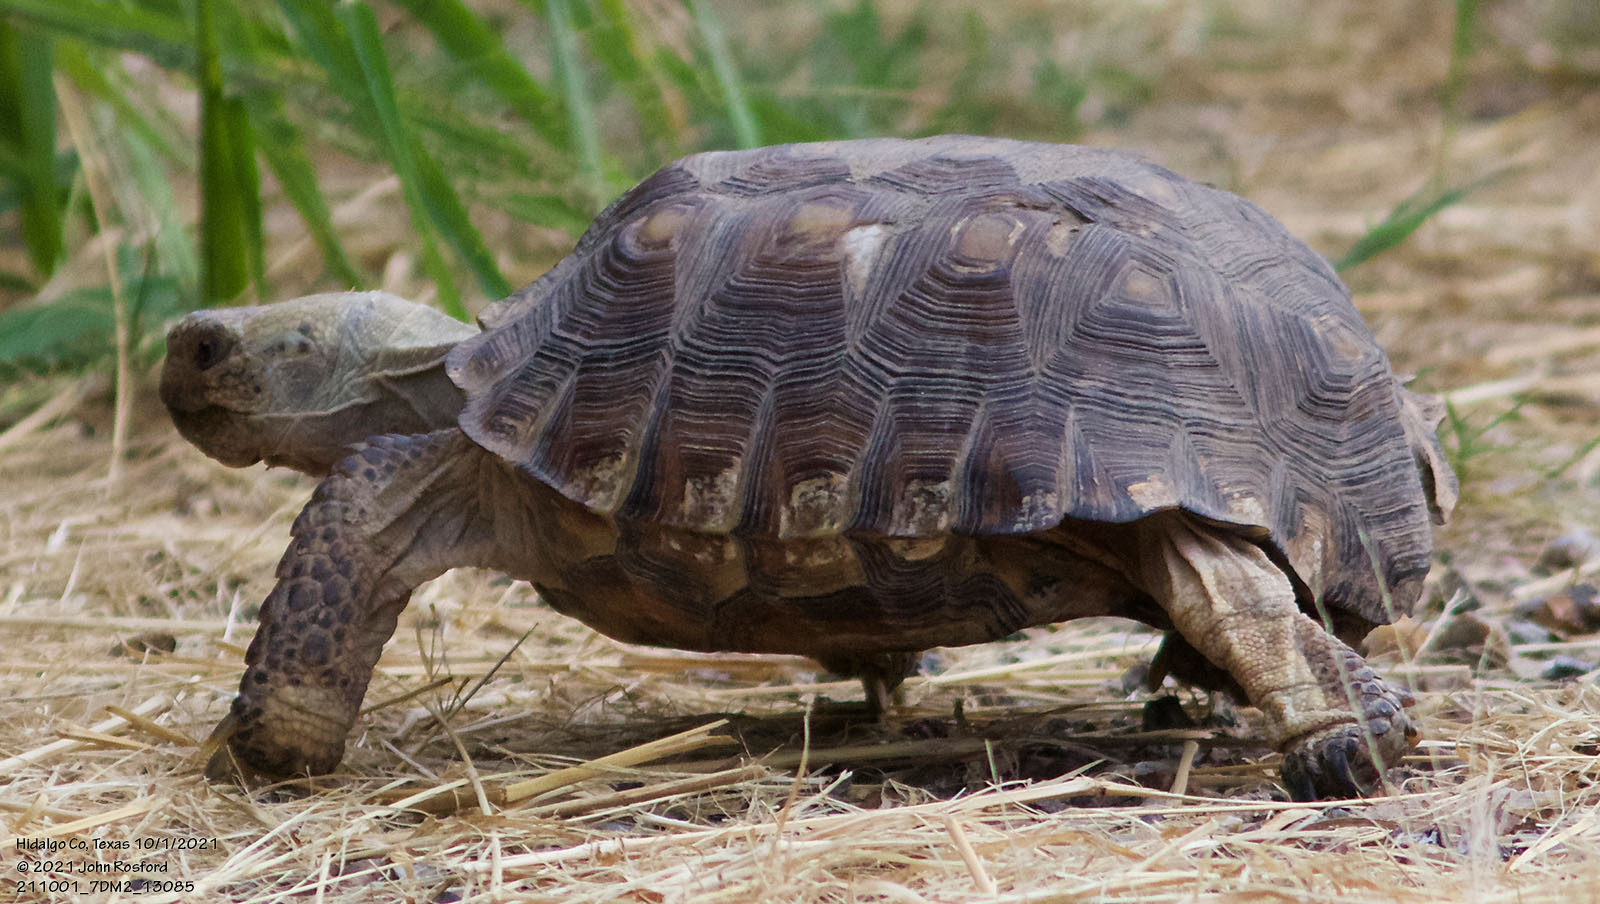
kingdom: Animalia
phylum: Chordata
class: Testudines
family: Testudinidae
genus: Gopherus
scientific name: Gopherus berlandieri
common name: Texas (gopher )tortoise
